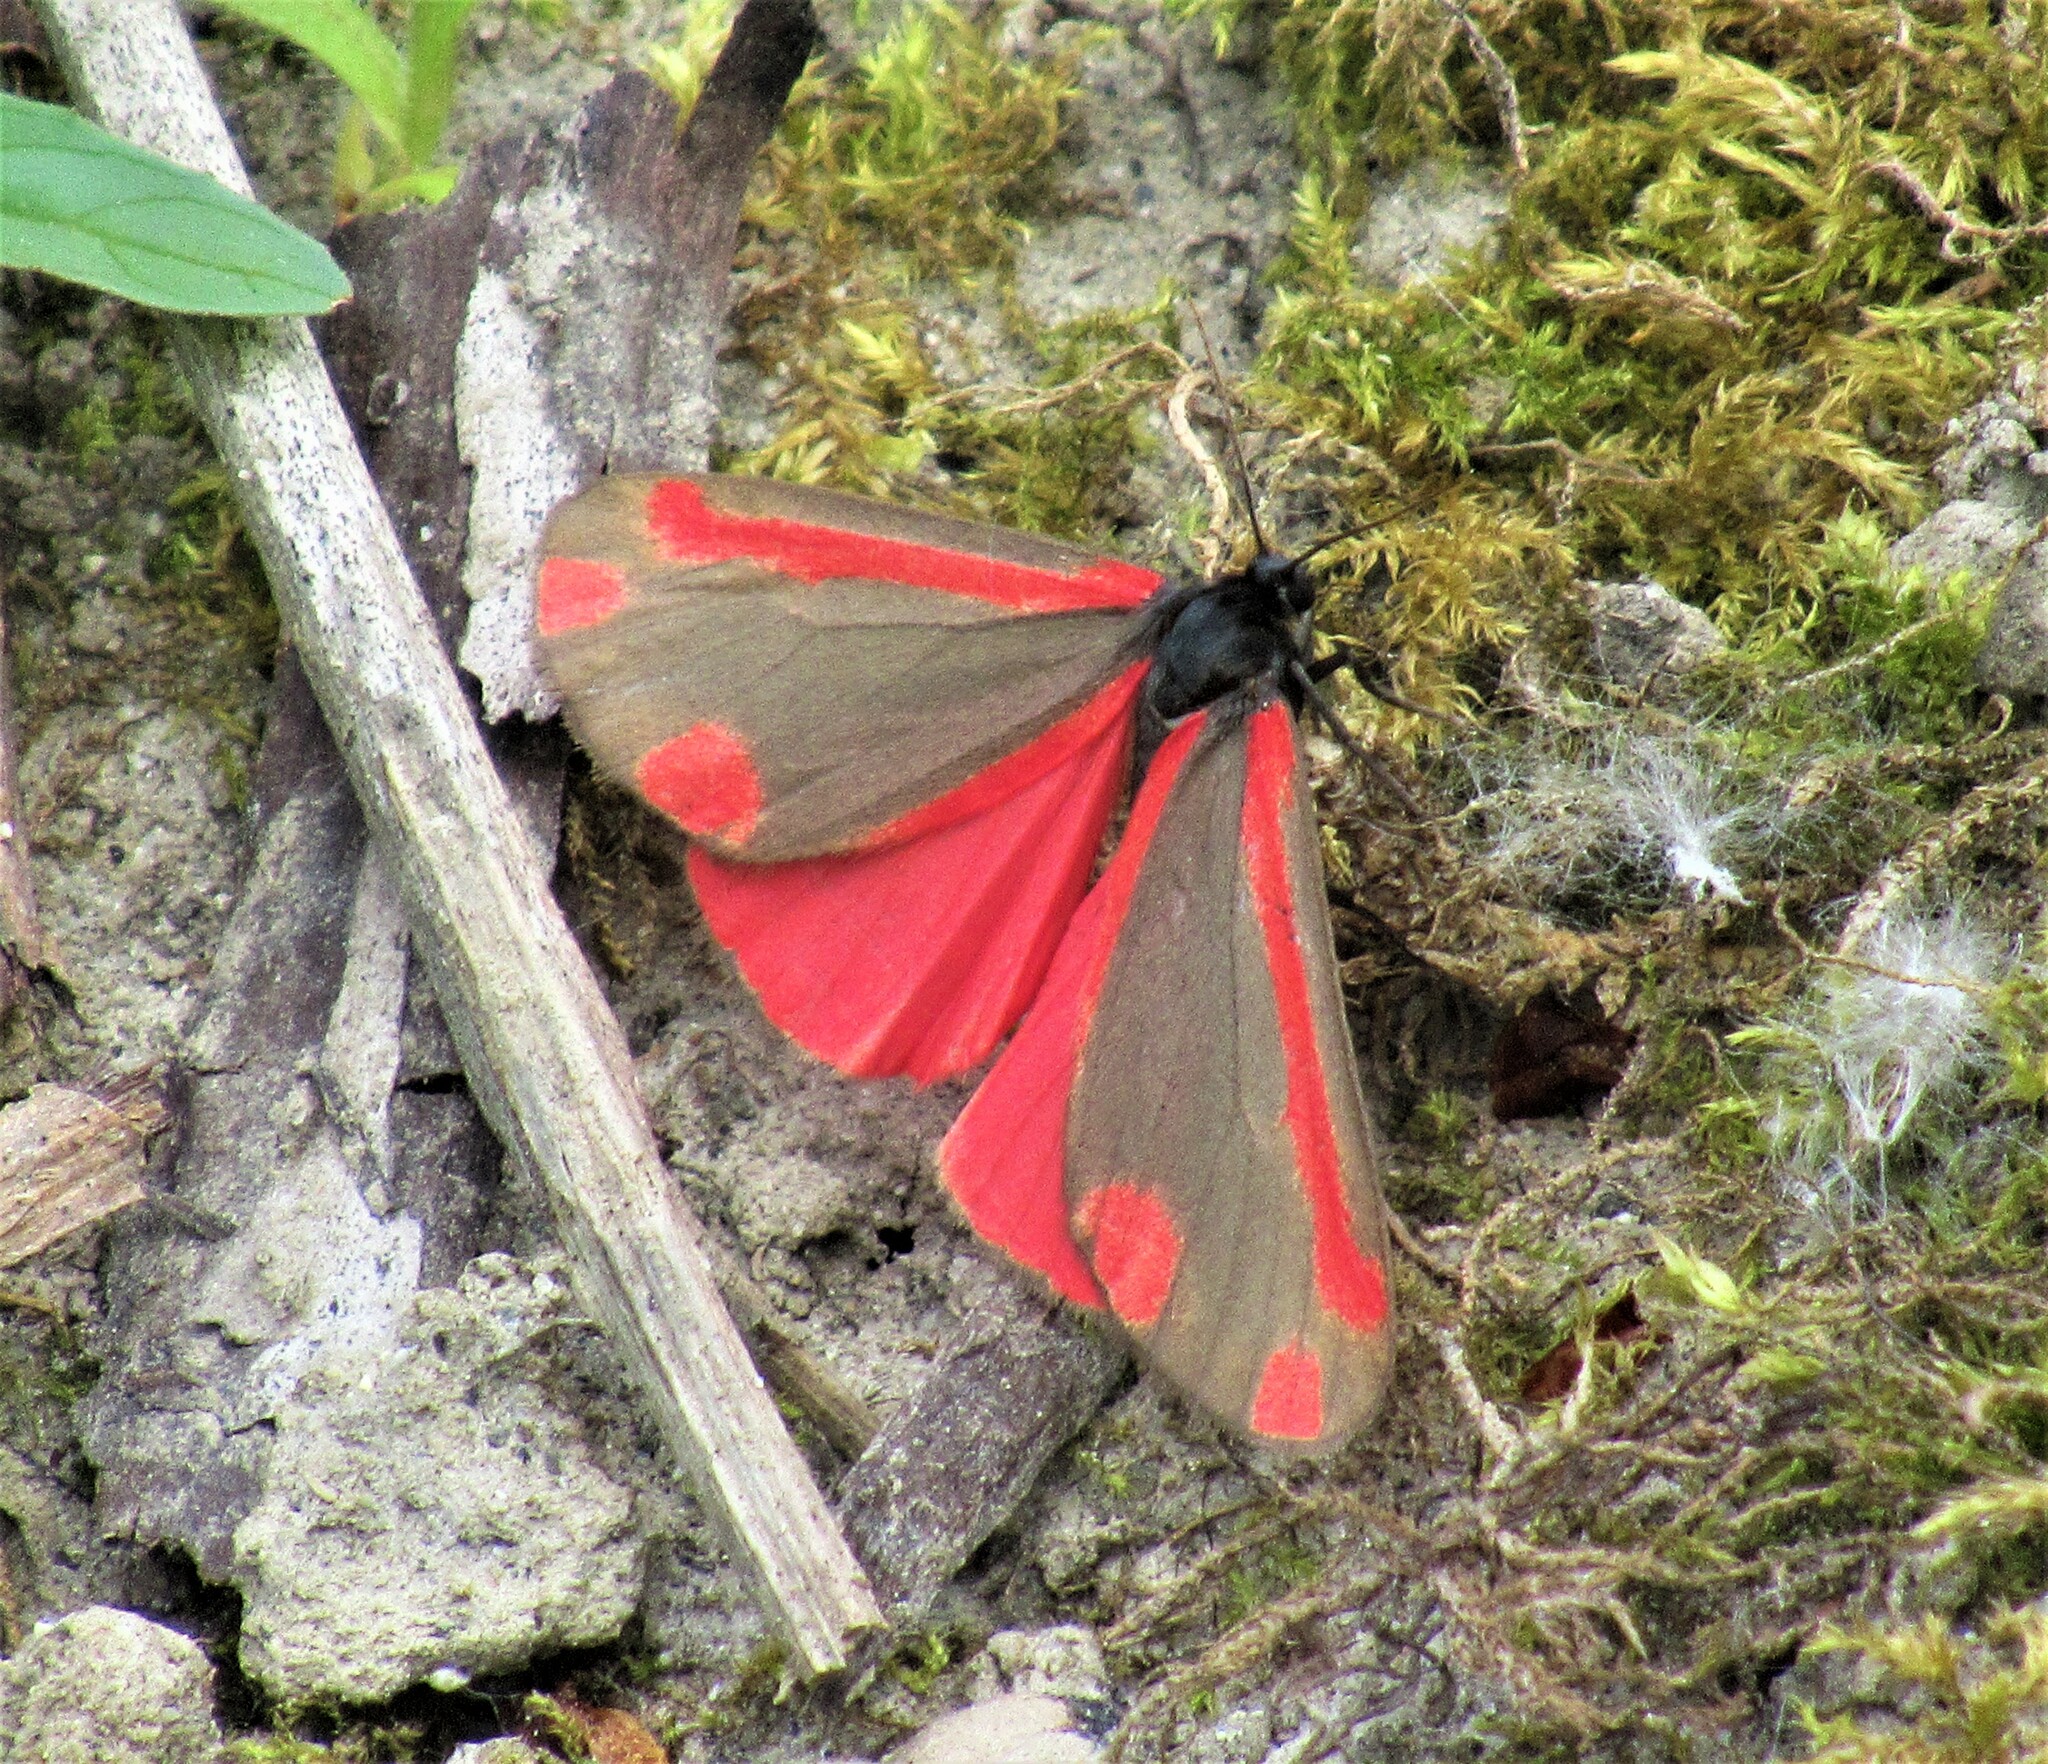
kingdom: Animalia
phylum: Arthropoda
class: Insecta
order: Lepidoptera
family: Erebidae
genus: Tyria
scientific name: Tyria jacobaeae
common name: Cinnabar
